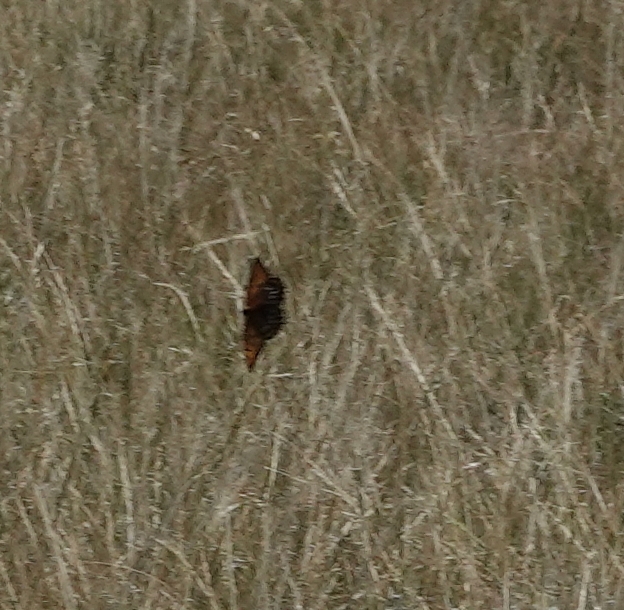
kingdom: Animalia
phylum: Arthropoda
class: Insecta
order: Lepidoptera
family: Nymphalidae
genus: Speyeria
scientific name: Speyeria idalia
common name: Regal fritillary
